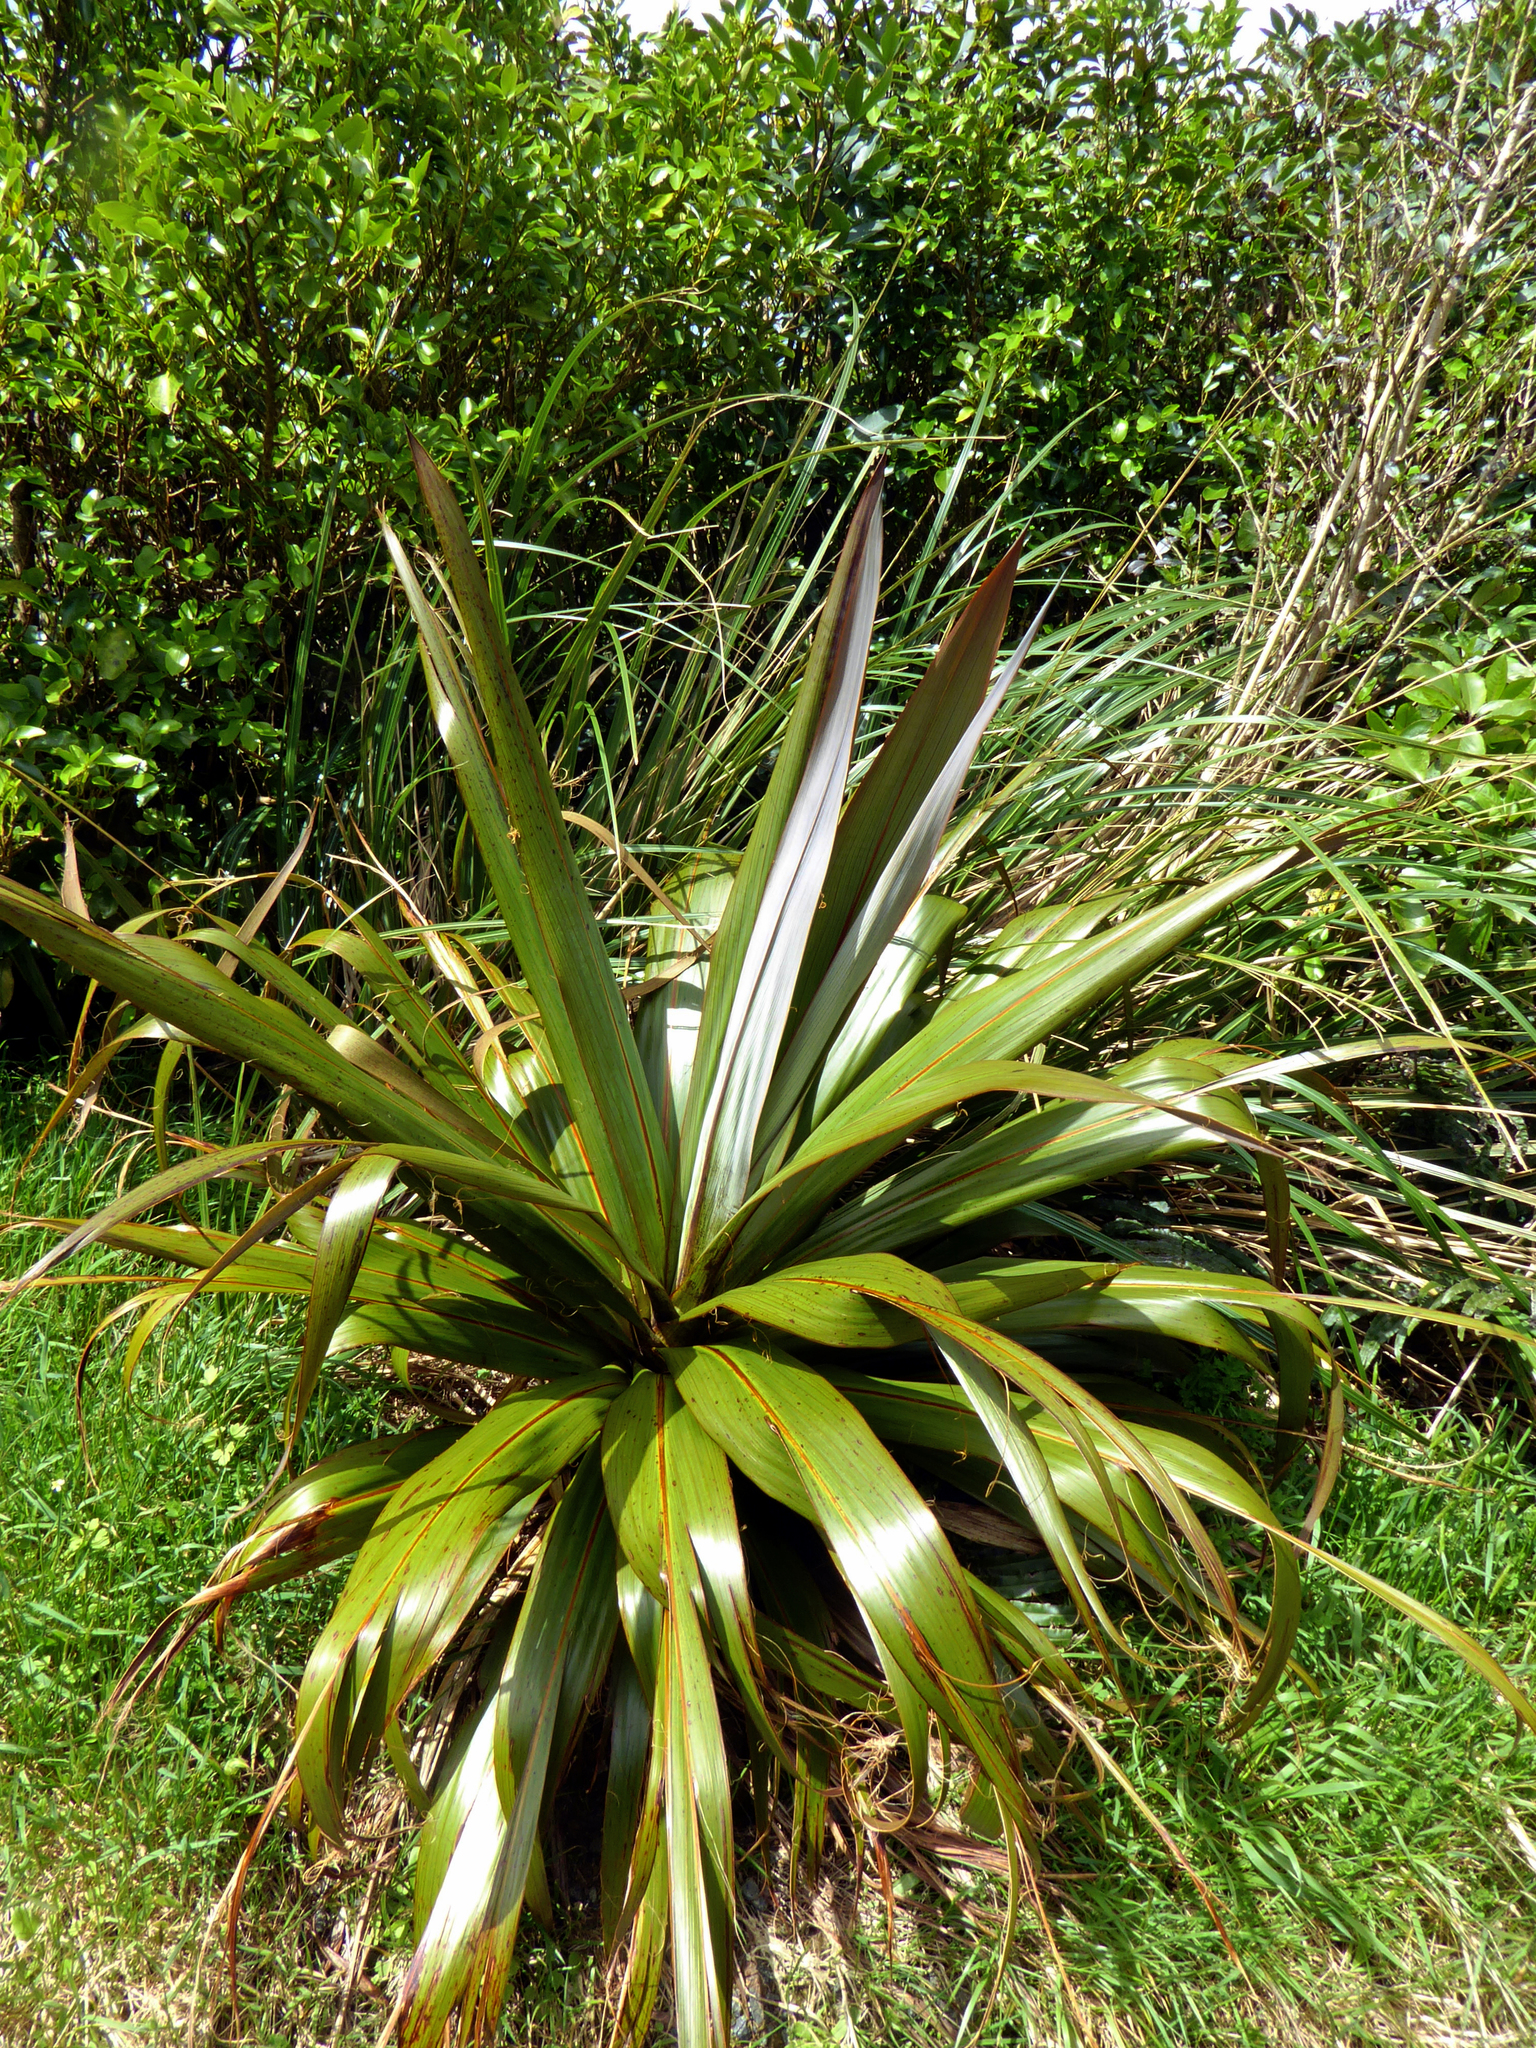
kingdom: Plantae
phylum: Tracheophyta
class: Liliopsida
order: Asparagales
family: Asparagaceae
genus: Cordyline
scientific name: Cordyline indivisa
